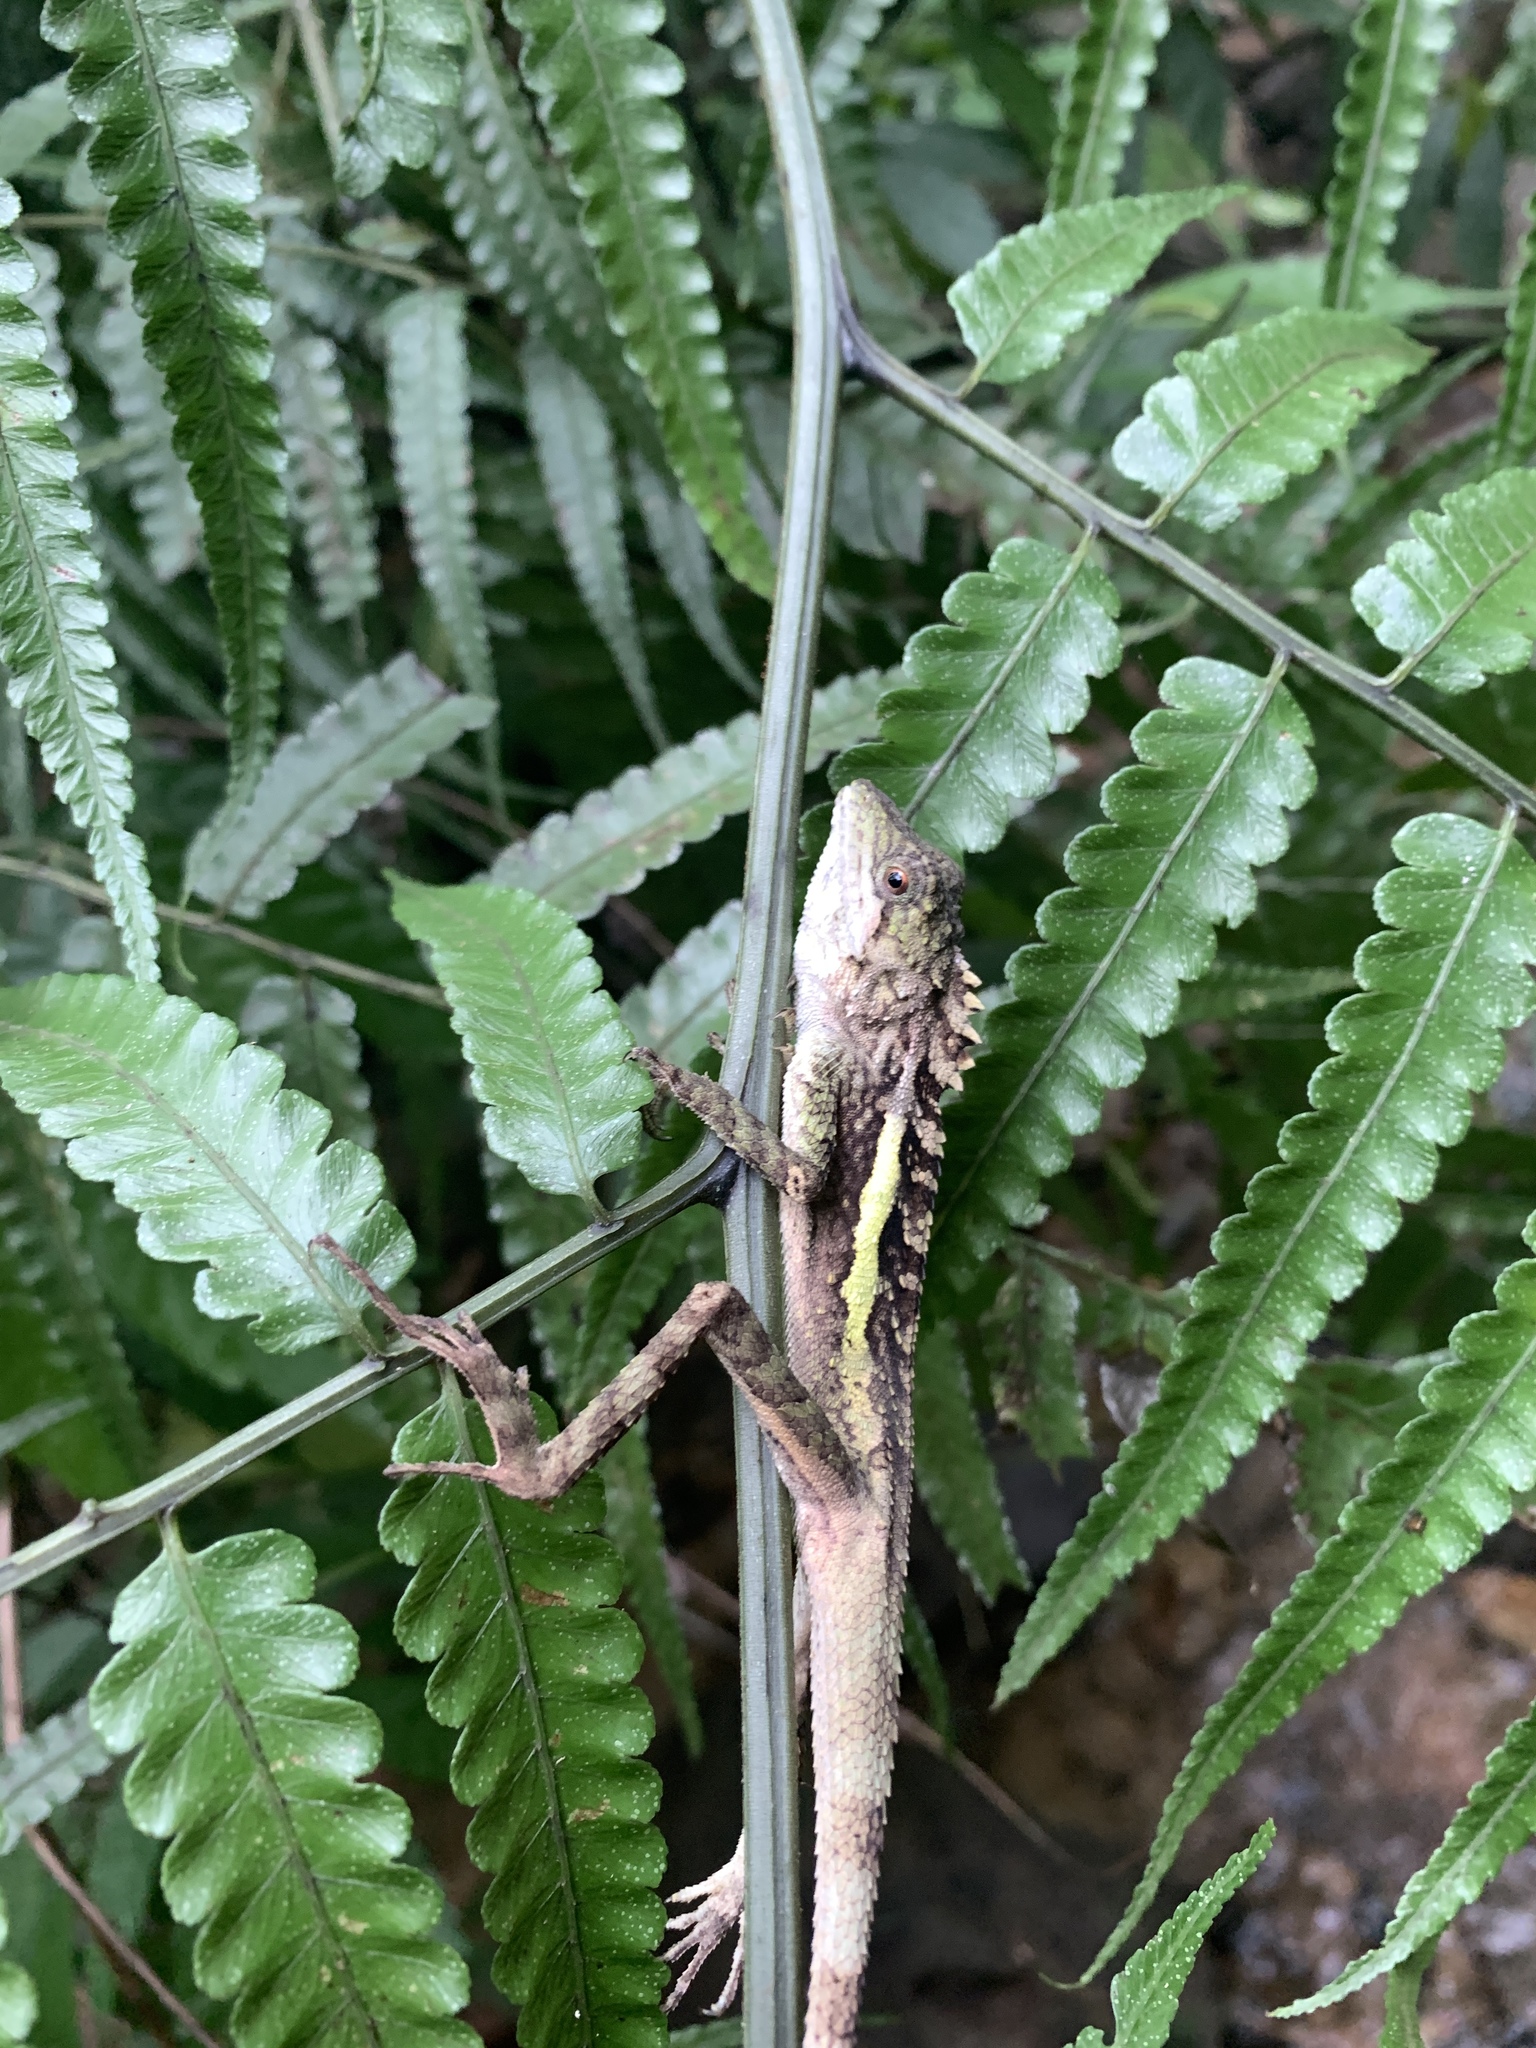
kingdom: Animalia
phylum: Chordata
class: Squamata
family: Agamidae
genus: Diploderma
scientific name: Diploderma swinhonis
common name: Taiwan japalure
